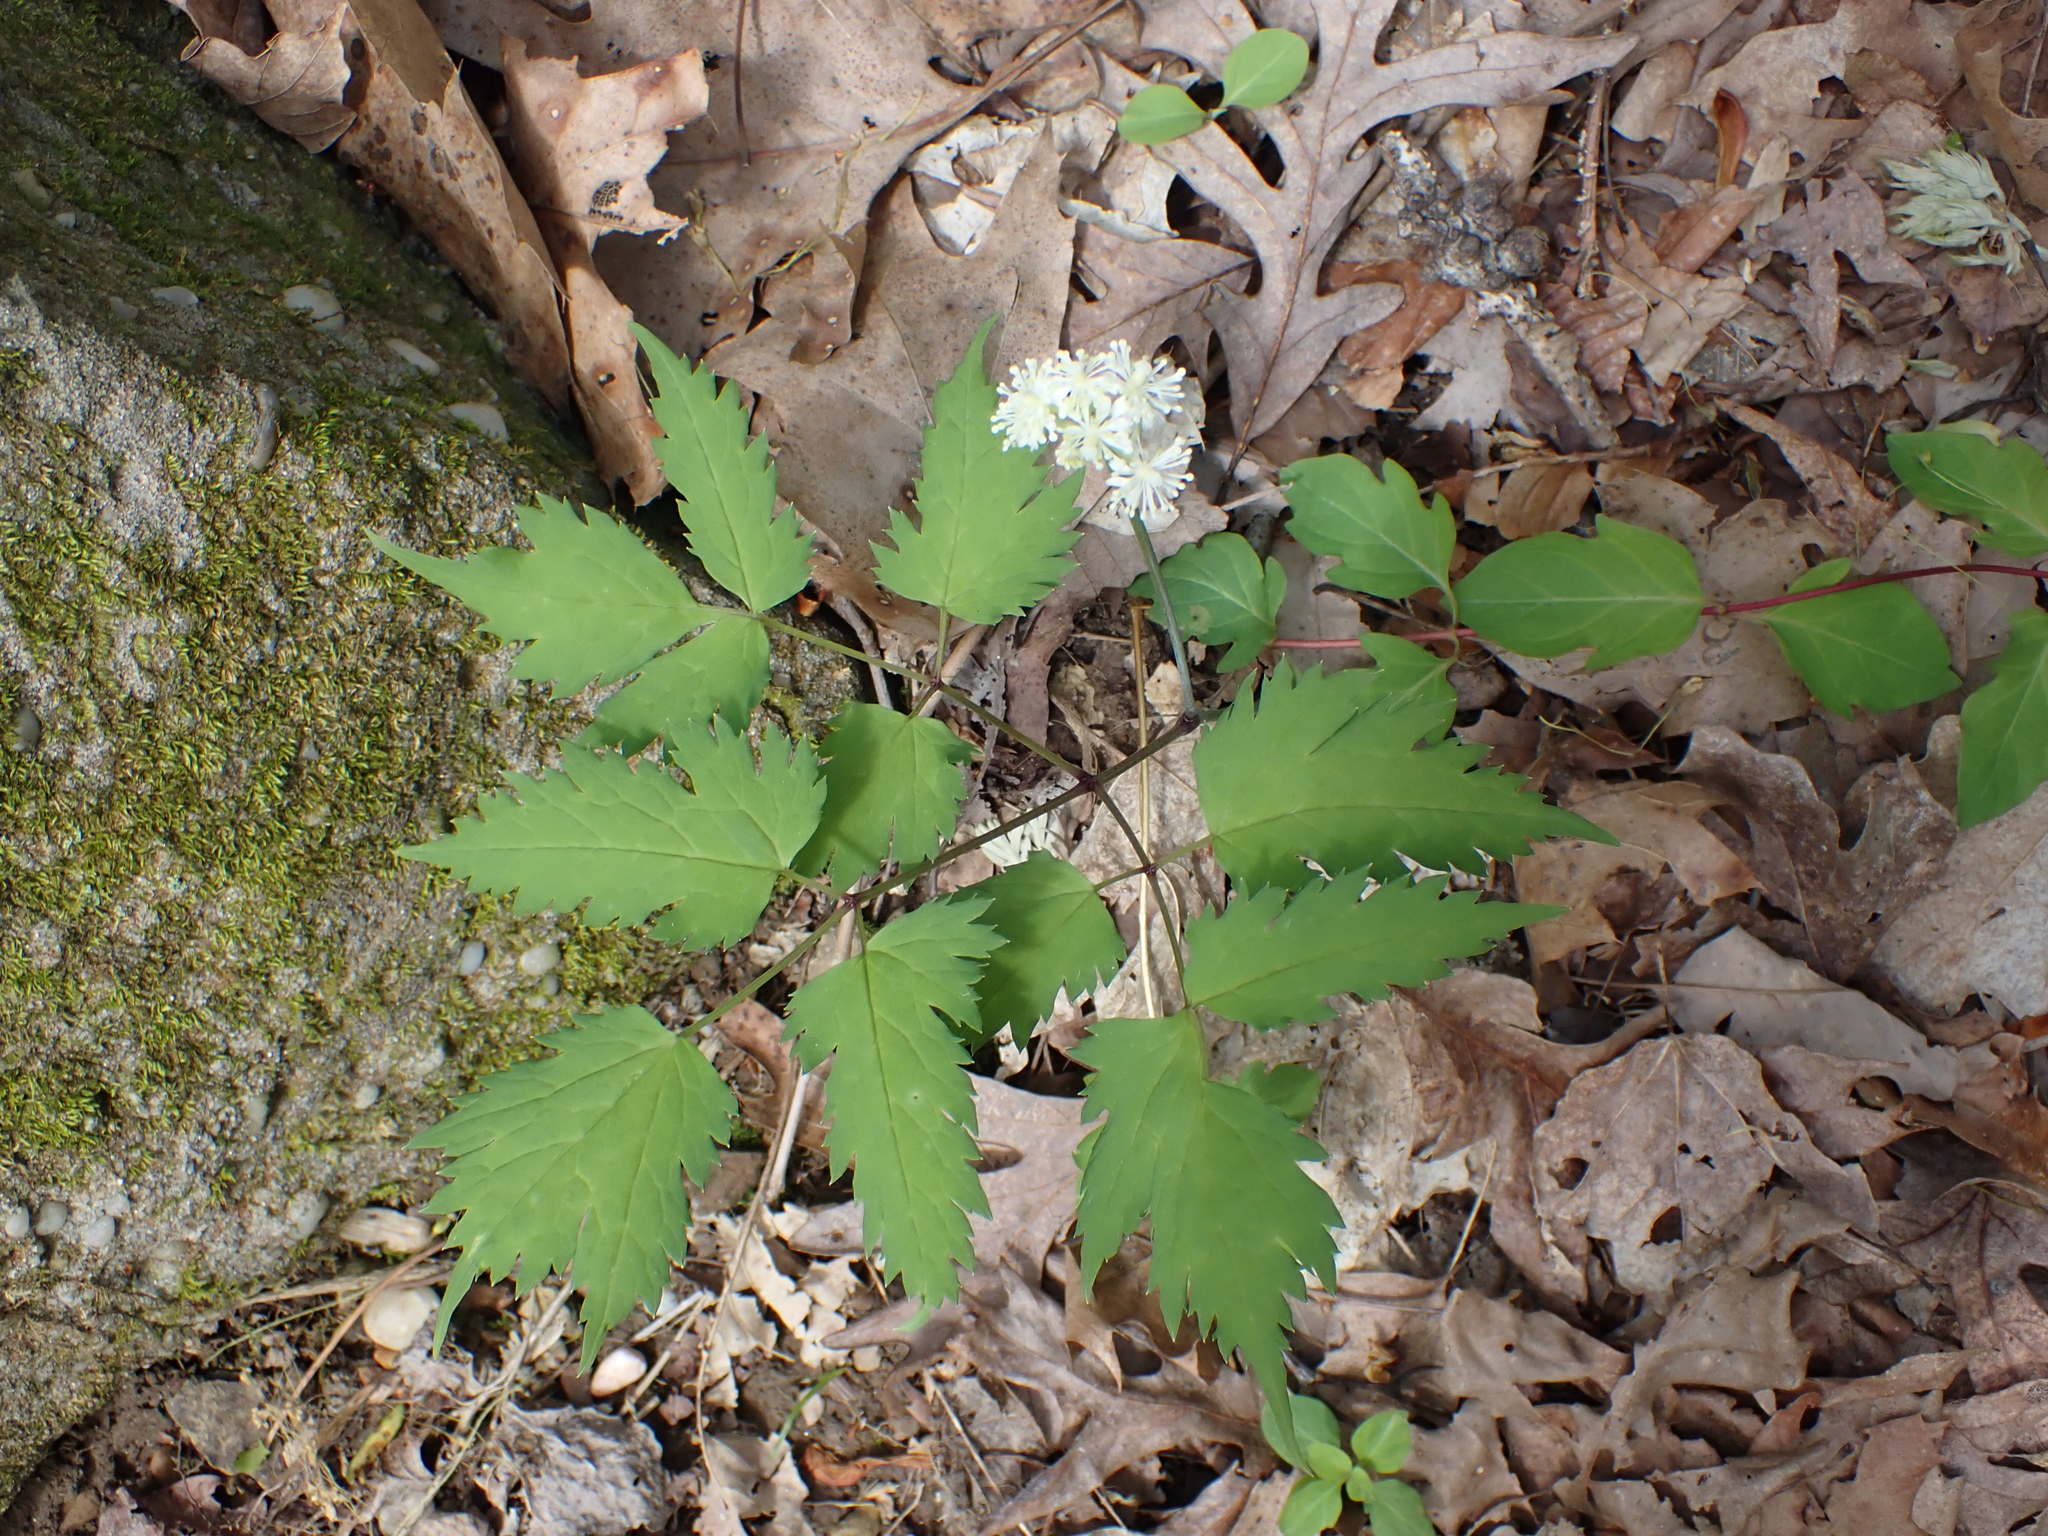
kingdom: Plantae
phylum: Tracheophyta
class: Magnoliopsida
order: Ranunculales
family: Ranunculaceae
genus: Actaea
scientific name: Actaea pachypoda
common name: Doll's-eyes
